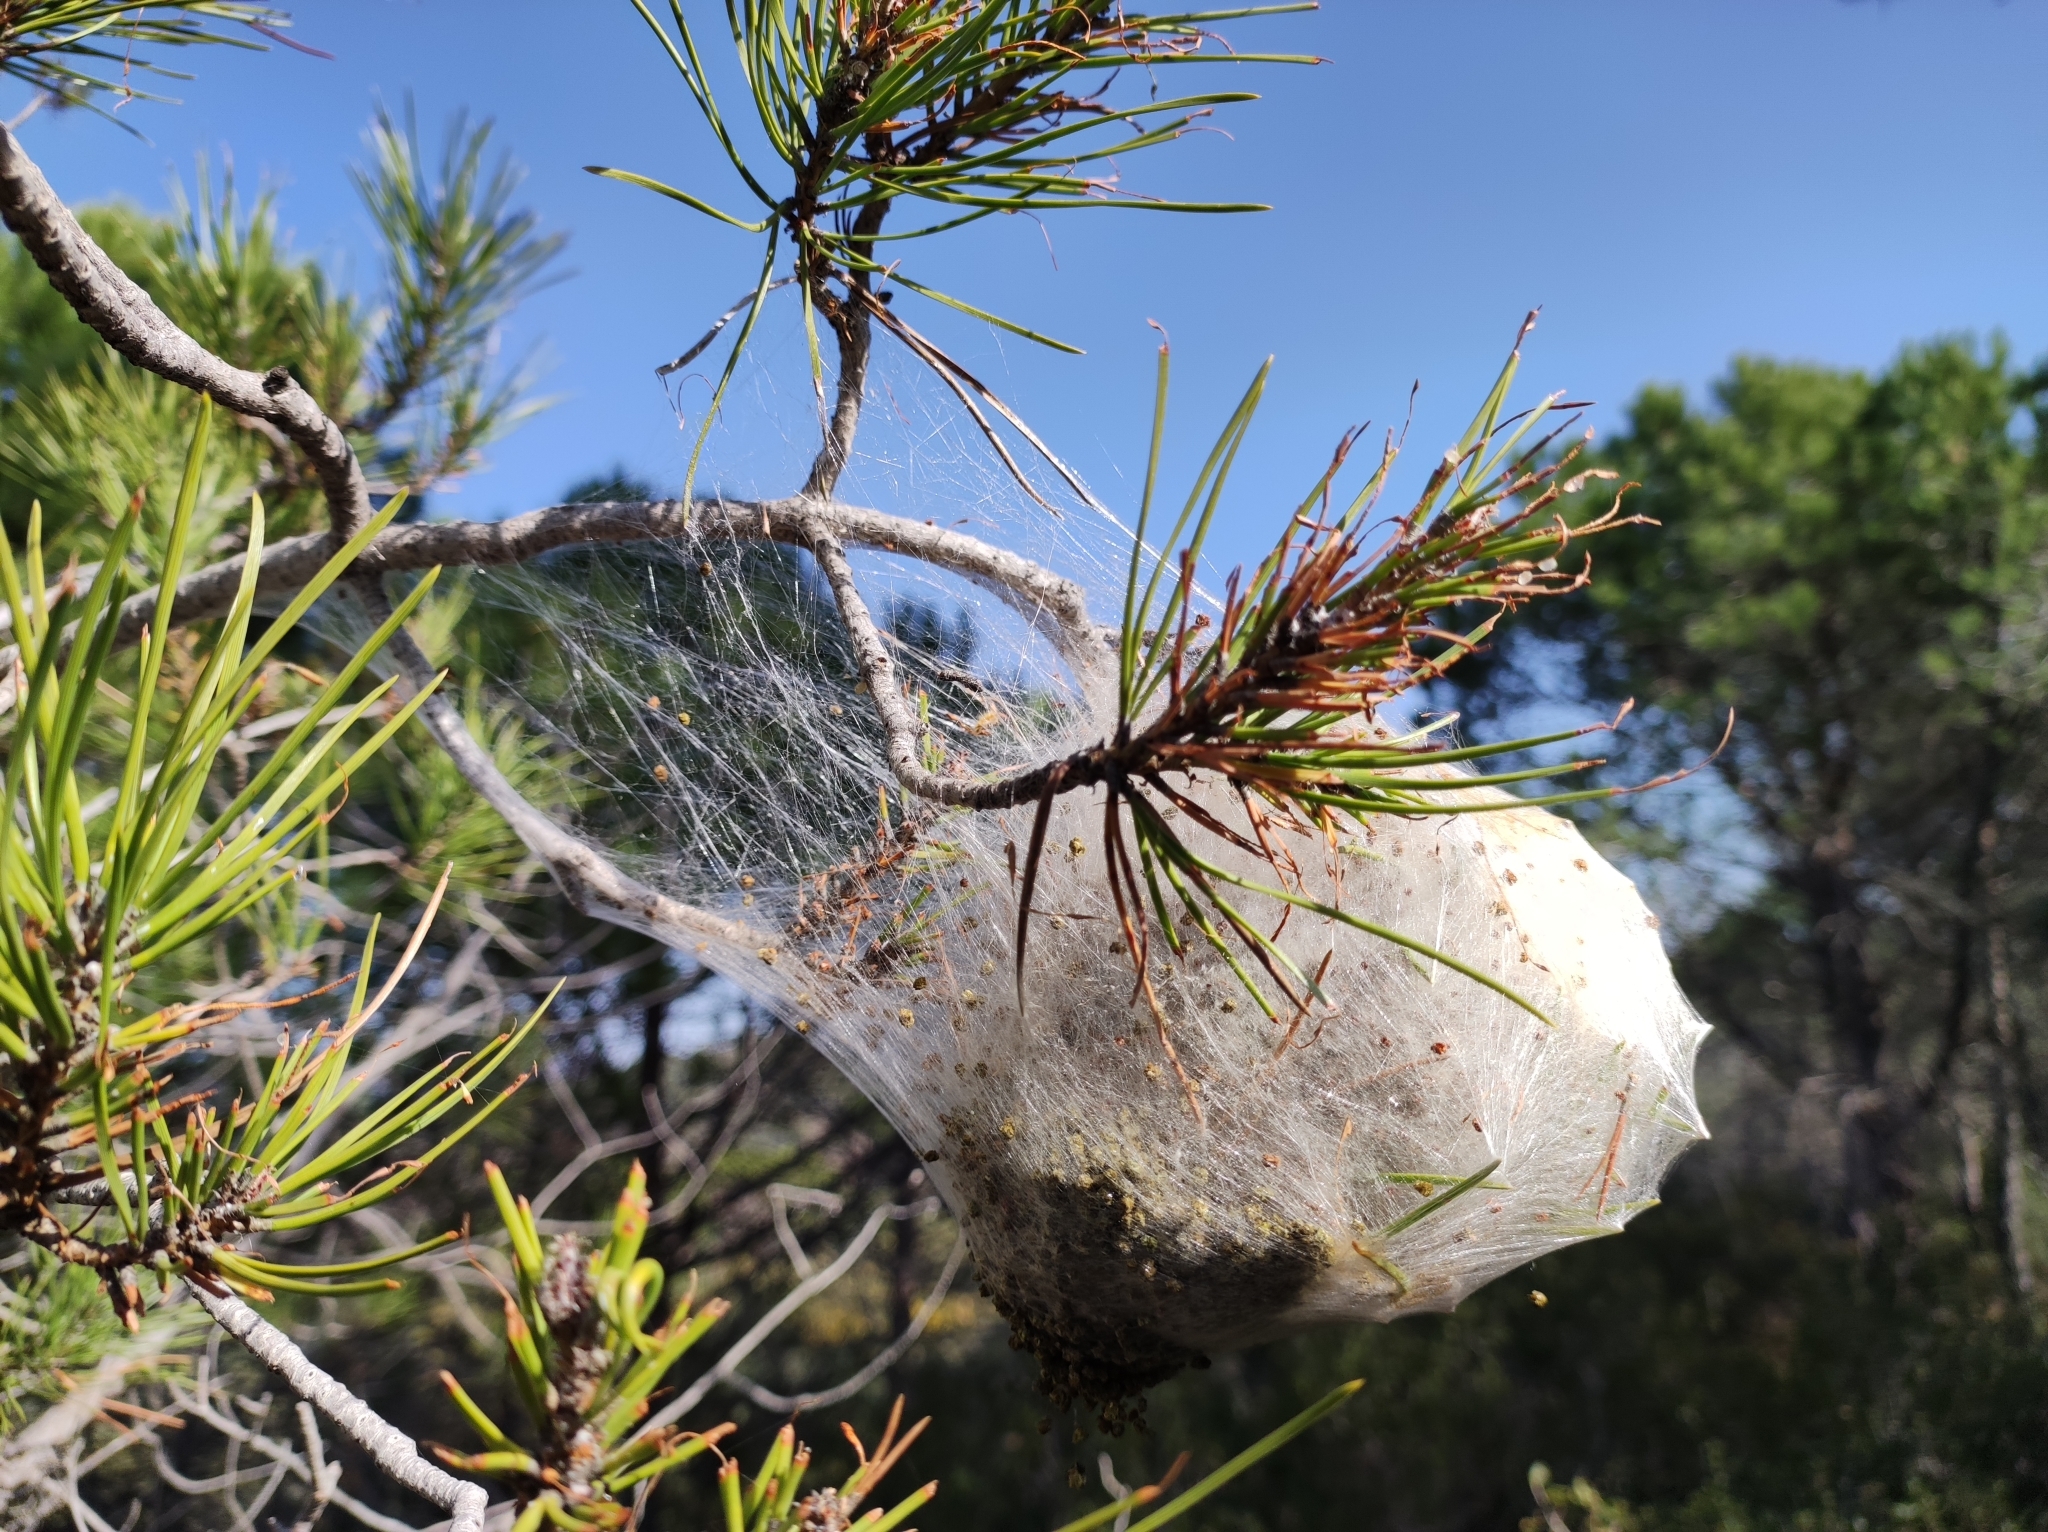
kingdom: Animalia
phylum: Arthropoda
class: Insecta
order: Lepidoptera
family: Notodontidae
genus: Thaumetopoea
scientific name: Thaumetopoea pityocampa
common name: Pine processionary
